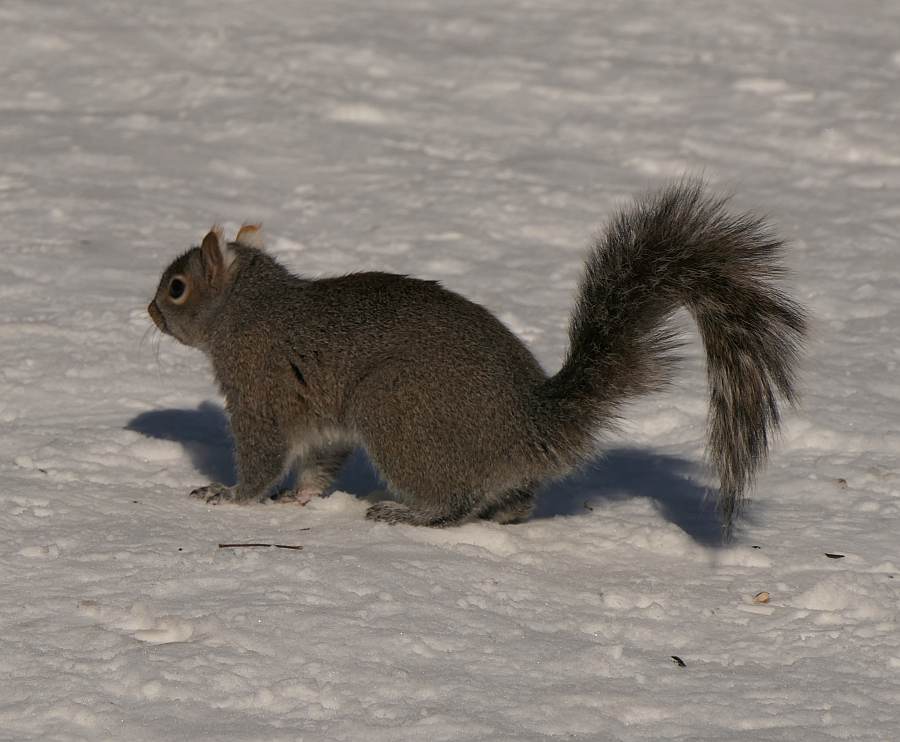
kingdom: Animalia
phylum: Chordata
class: Mammalia
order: Rodentia
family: Sciuridae
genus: Sciurus
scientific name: Sciurus carolinensis
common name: Eastern gray squirrel
